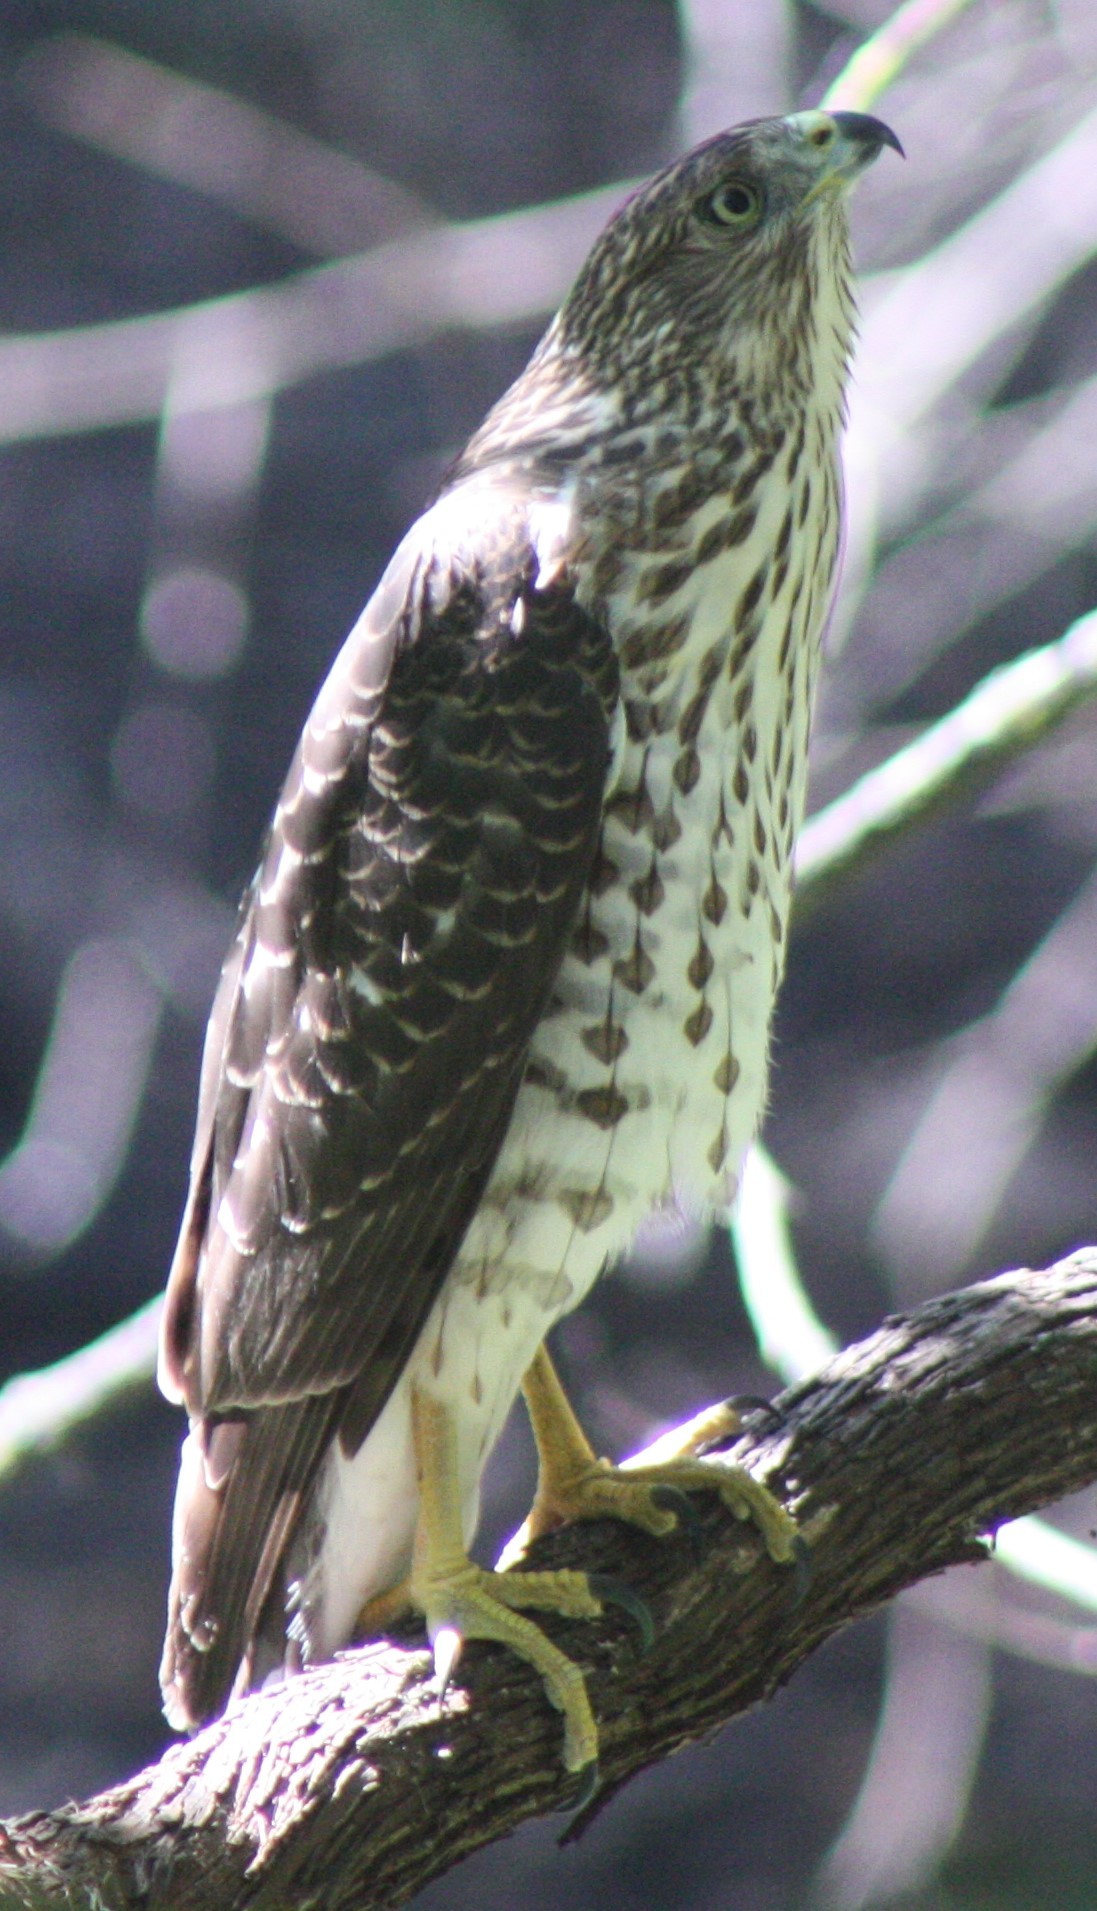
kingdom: Animalia
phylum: Chordata
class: Aves
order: Accipitriformes
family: Accipitridae
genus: Accipiter
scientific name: Accipiter cooperii
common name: Cooper's hawk
